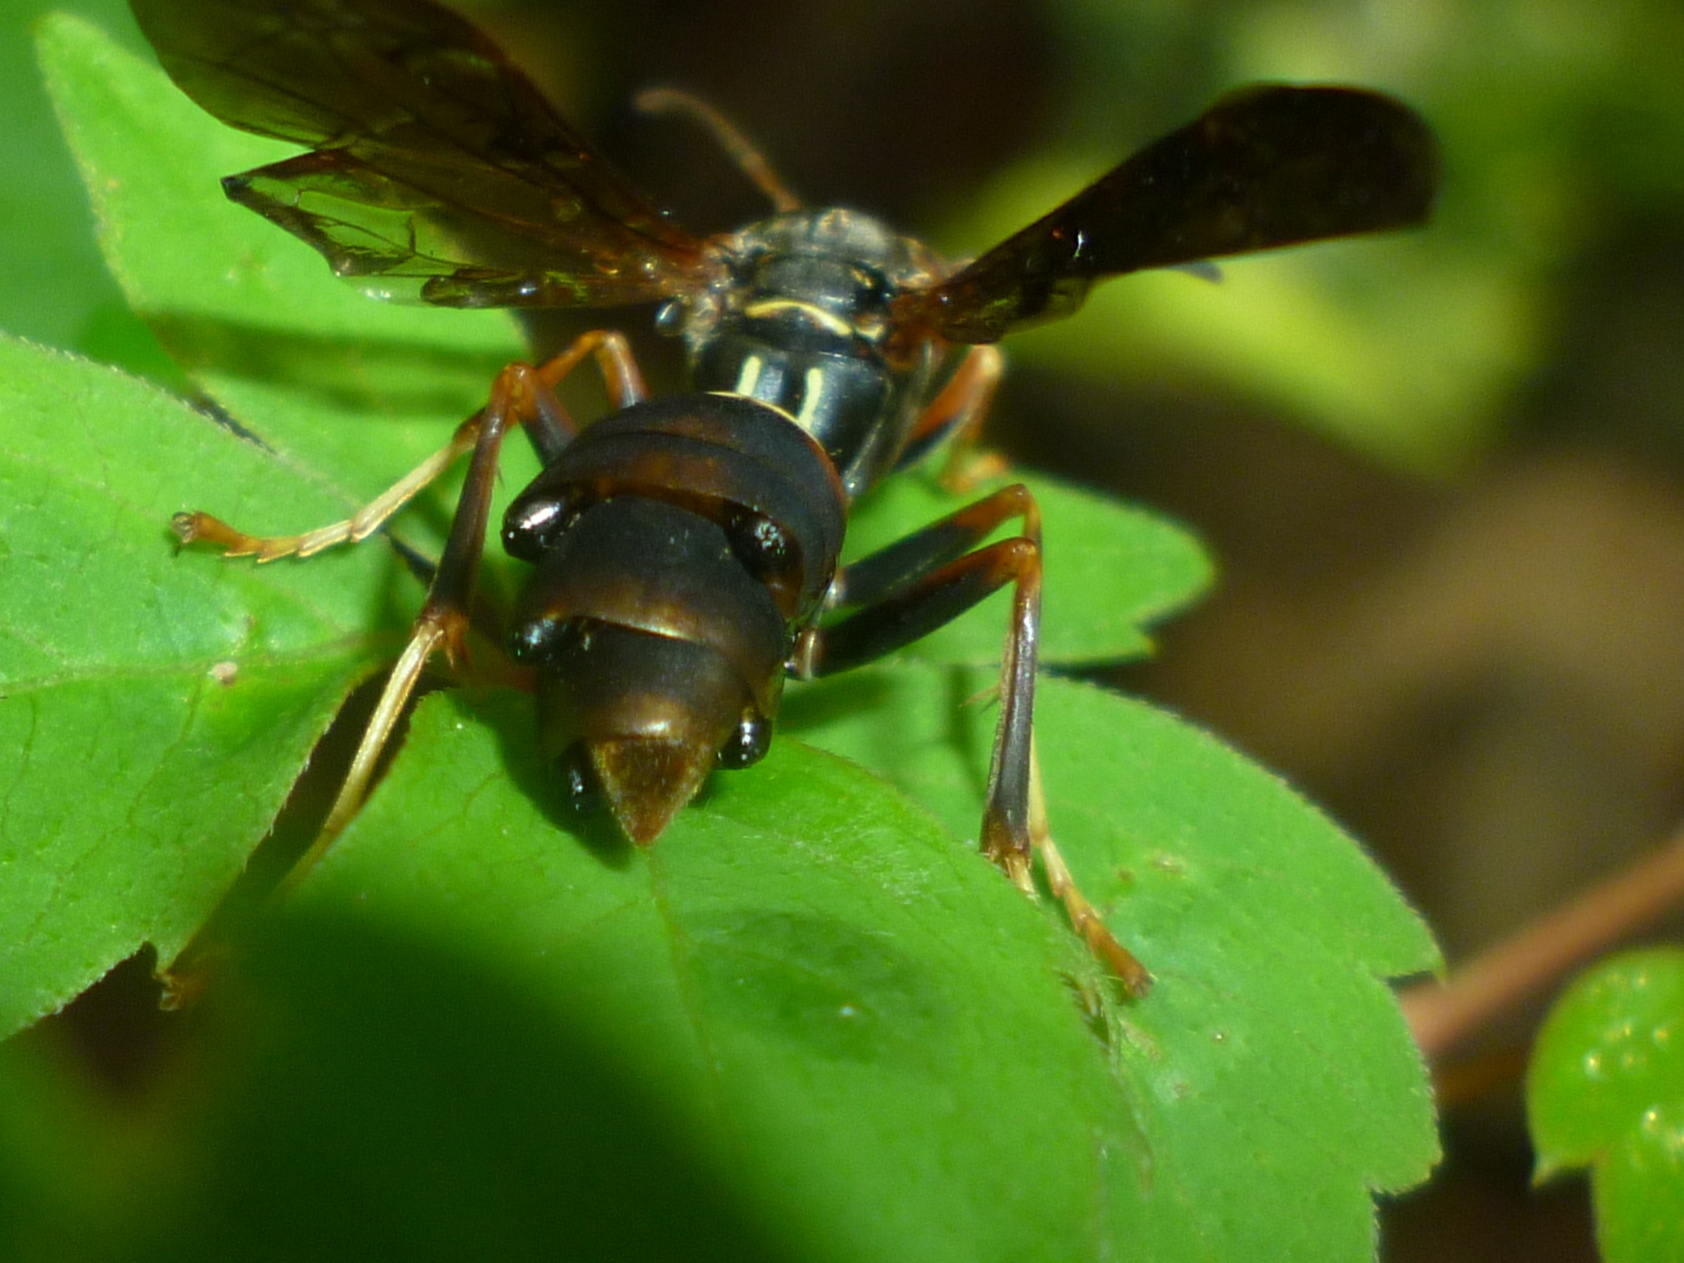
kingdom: Animalia
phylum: Arthropoda
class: Insecta
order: Strepsiptera
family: Xenidae
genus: Xenos
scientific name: Xenos pecki
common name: Twisted wing parasite
